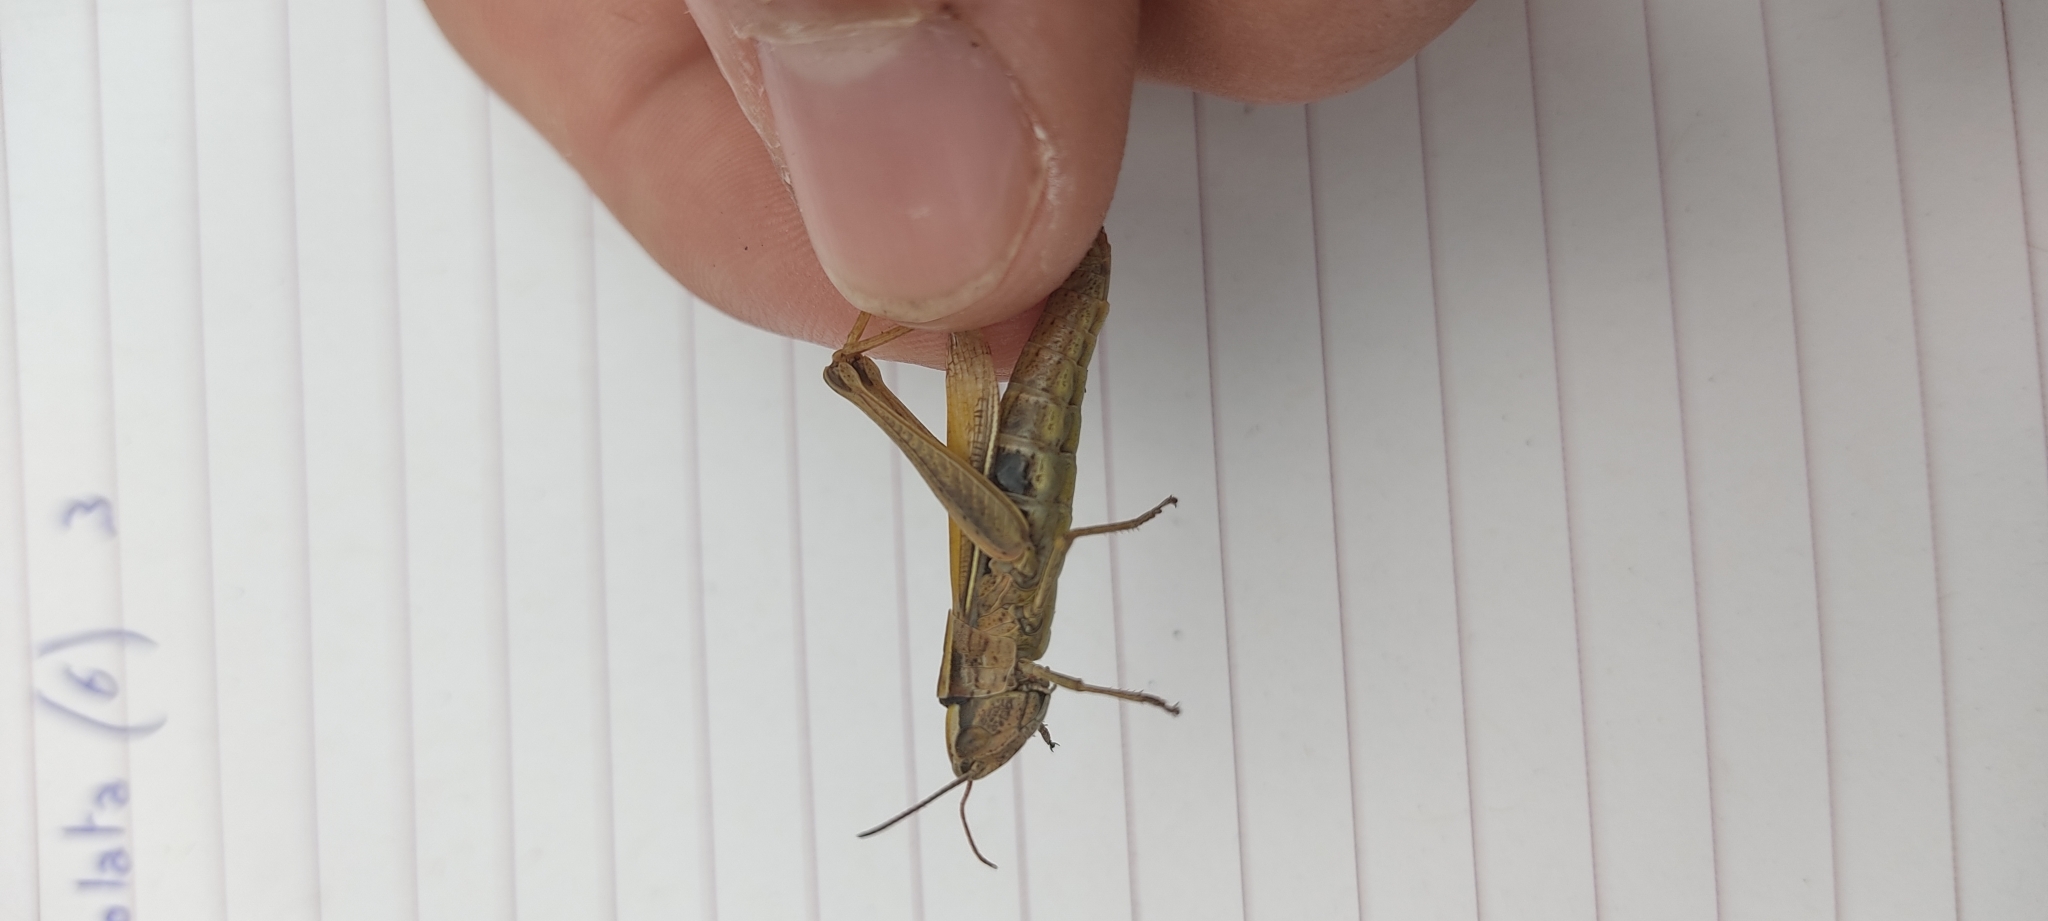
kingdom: Animalia
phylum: Arthropoda
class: Insecta
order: Orthoptera
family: Acrididae
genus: Chorthippus
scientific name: Chorthippus albomarginatus
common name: Lesser marsh grasshopper
